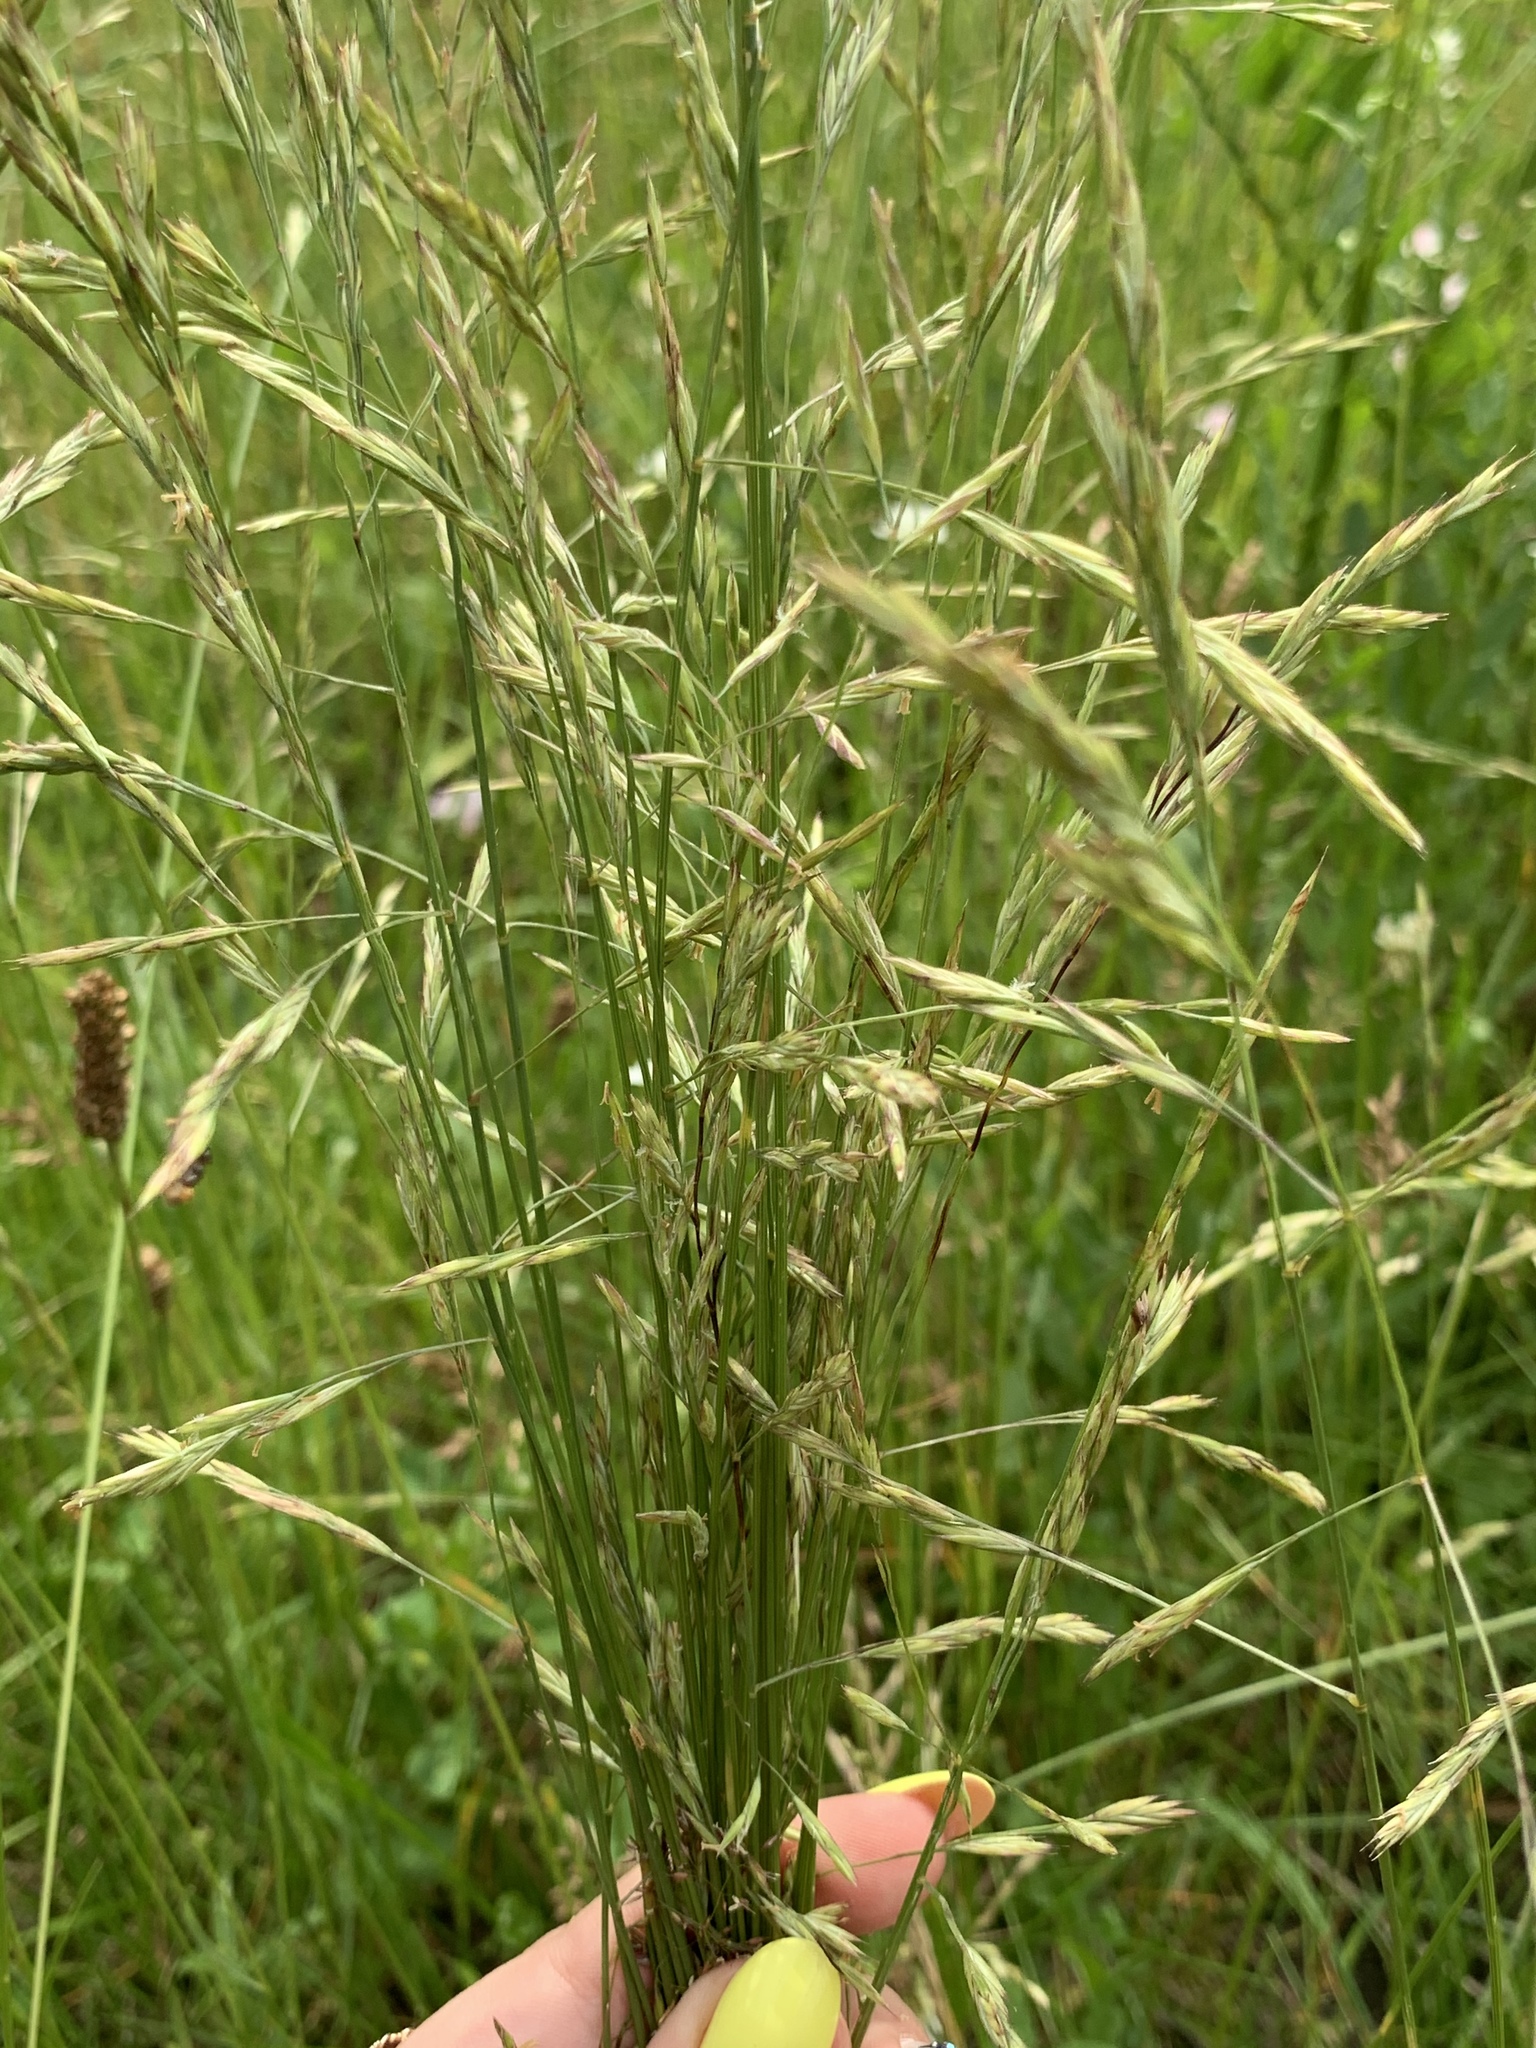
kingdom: Plantae
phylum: Tracheophyta
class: Liliopsida
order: Poales
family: Poaceae
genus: Bromus
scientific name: Bromus inermis
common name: Smooth brome
